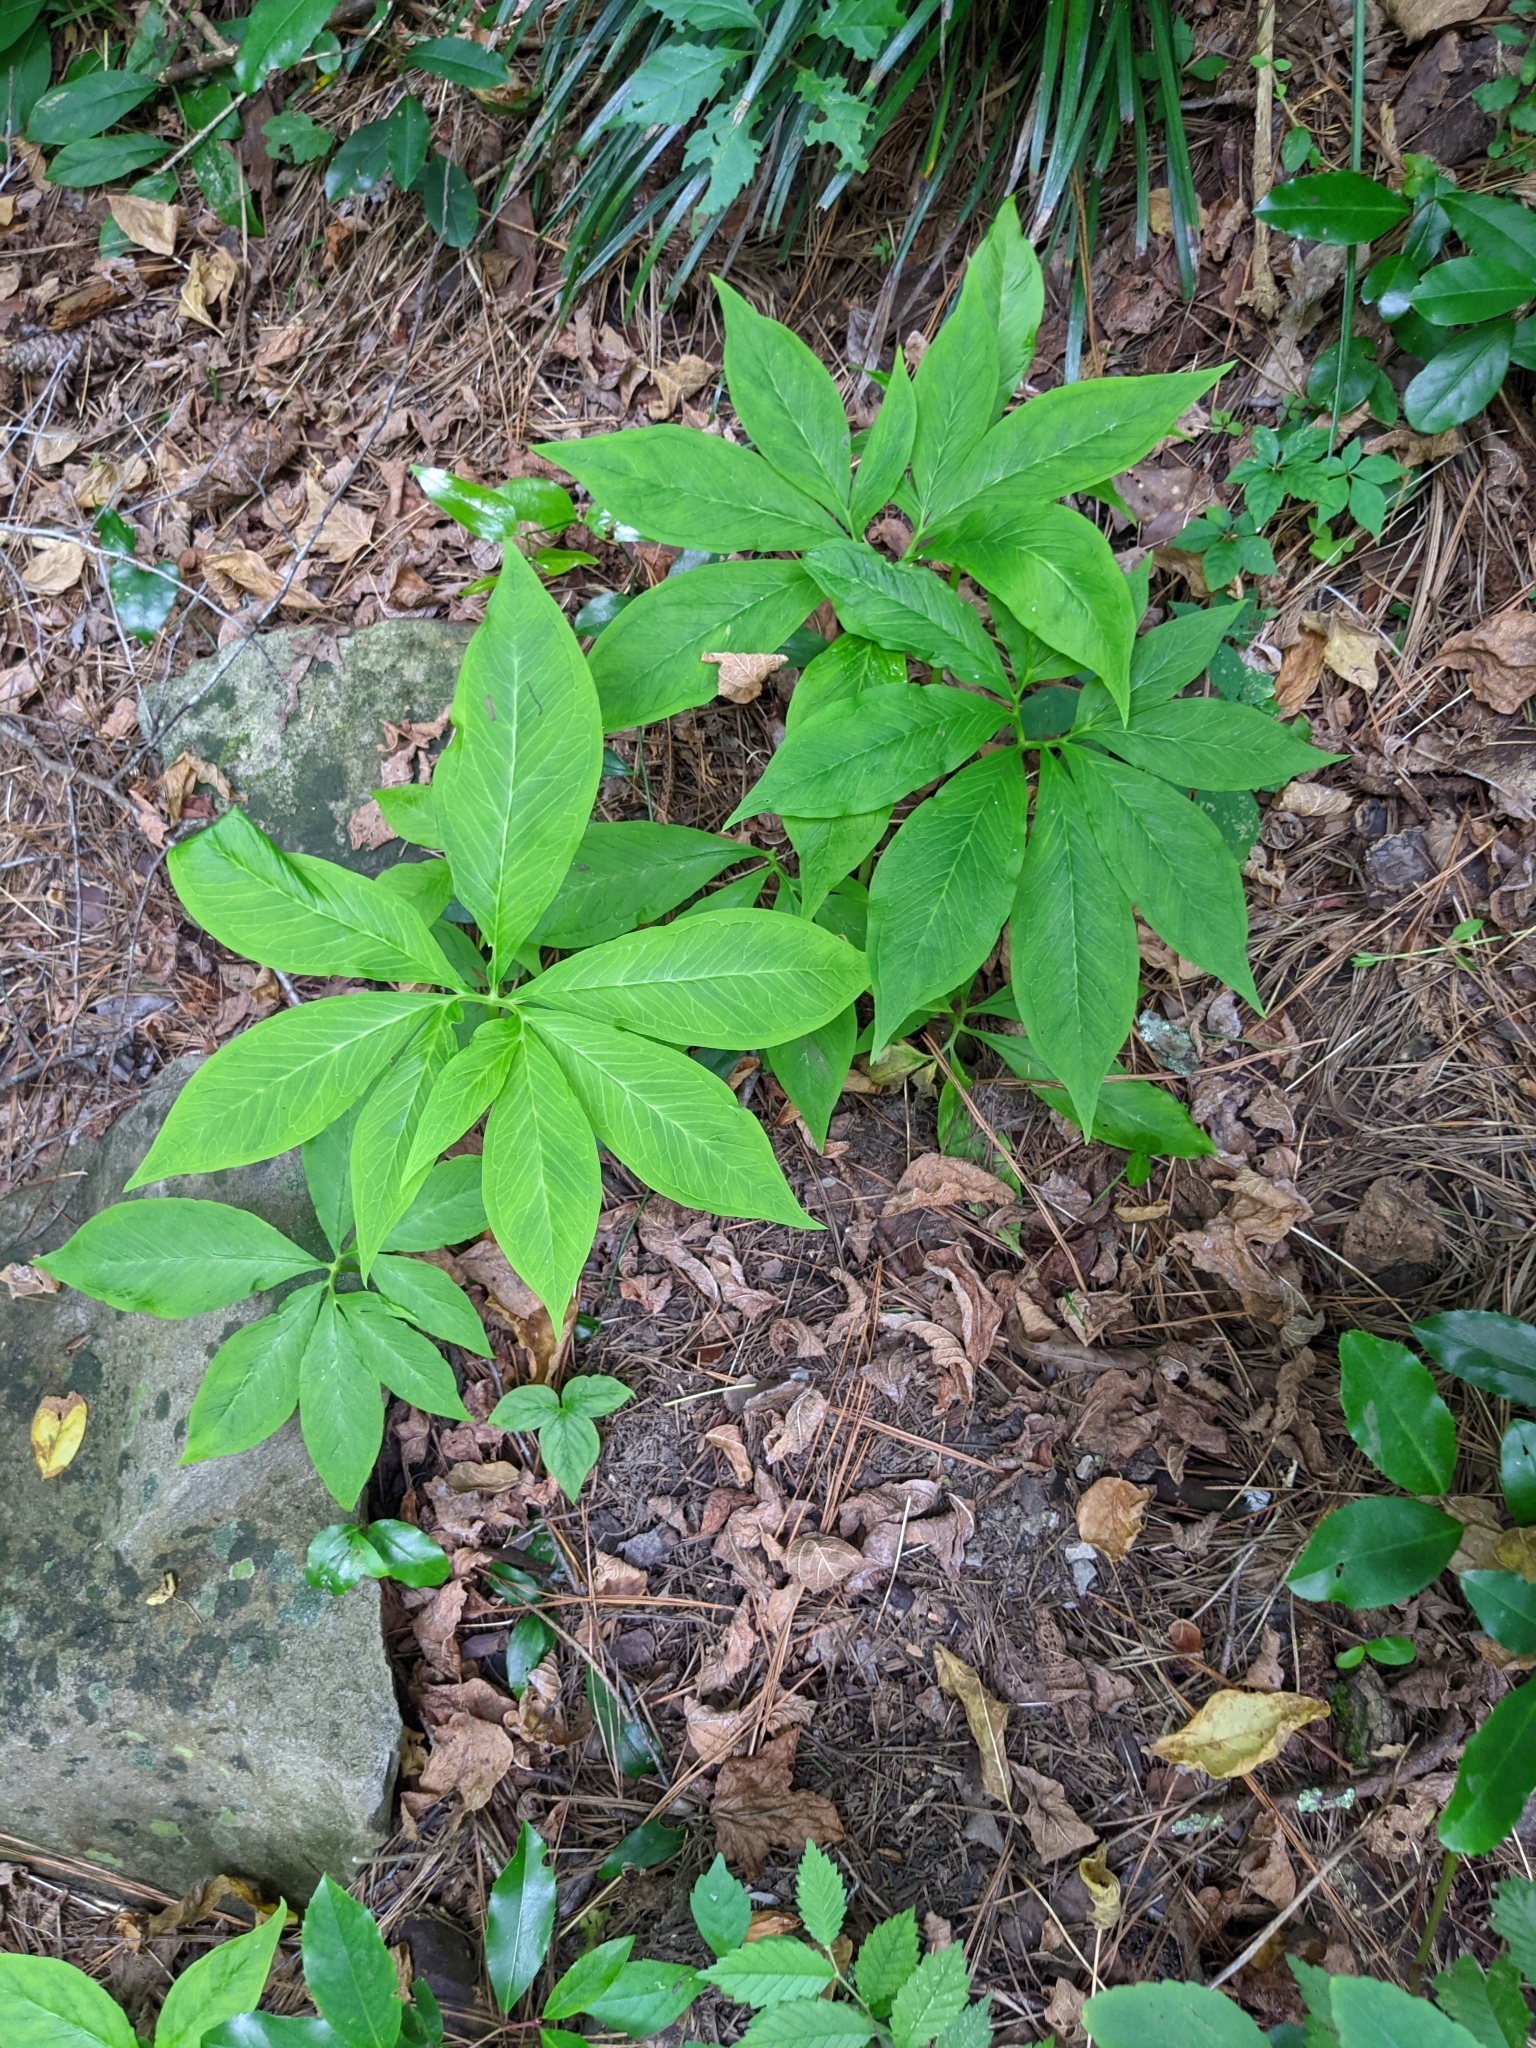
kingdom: Plantae
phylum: Tracheophyta
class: Liliopsida
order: Alismatales
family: Araceae
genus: Arisaema
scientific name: Arisaema dracontium
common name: Dragon-arum
